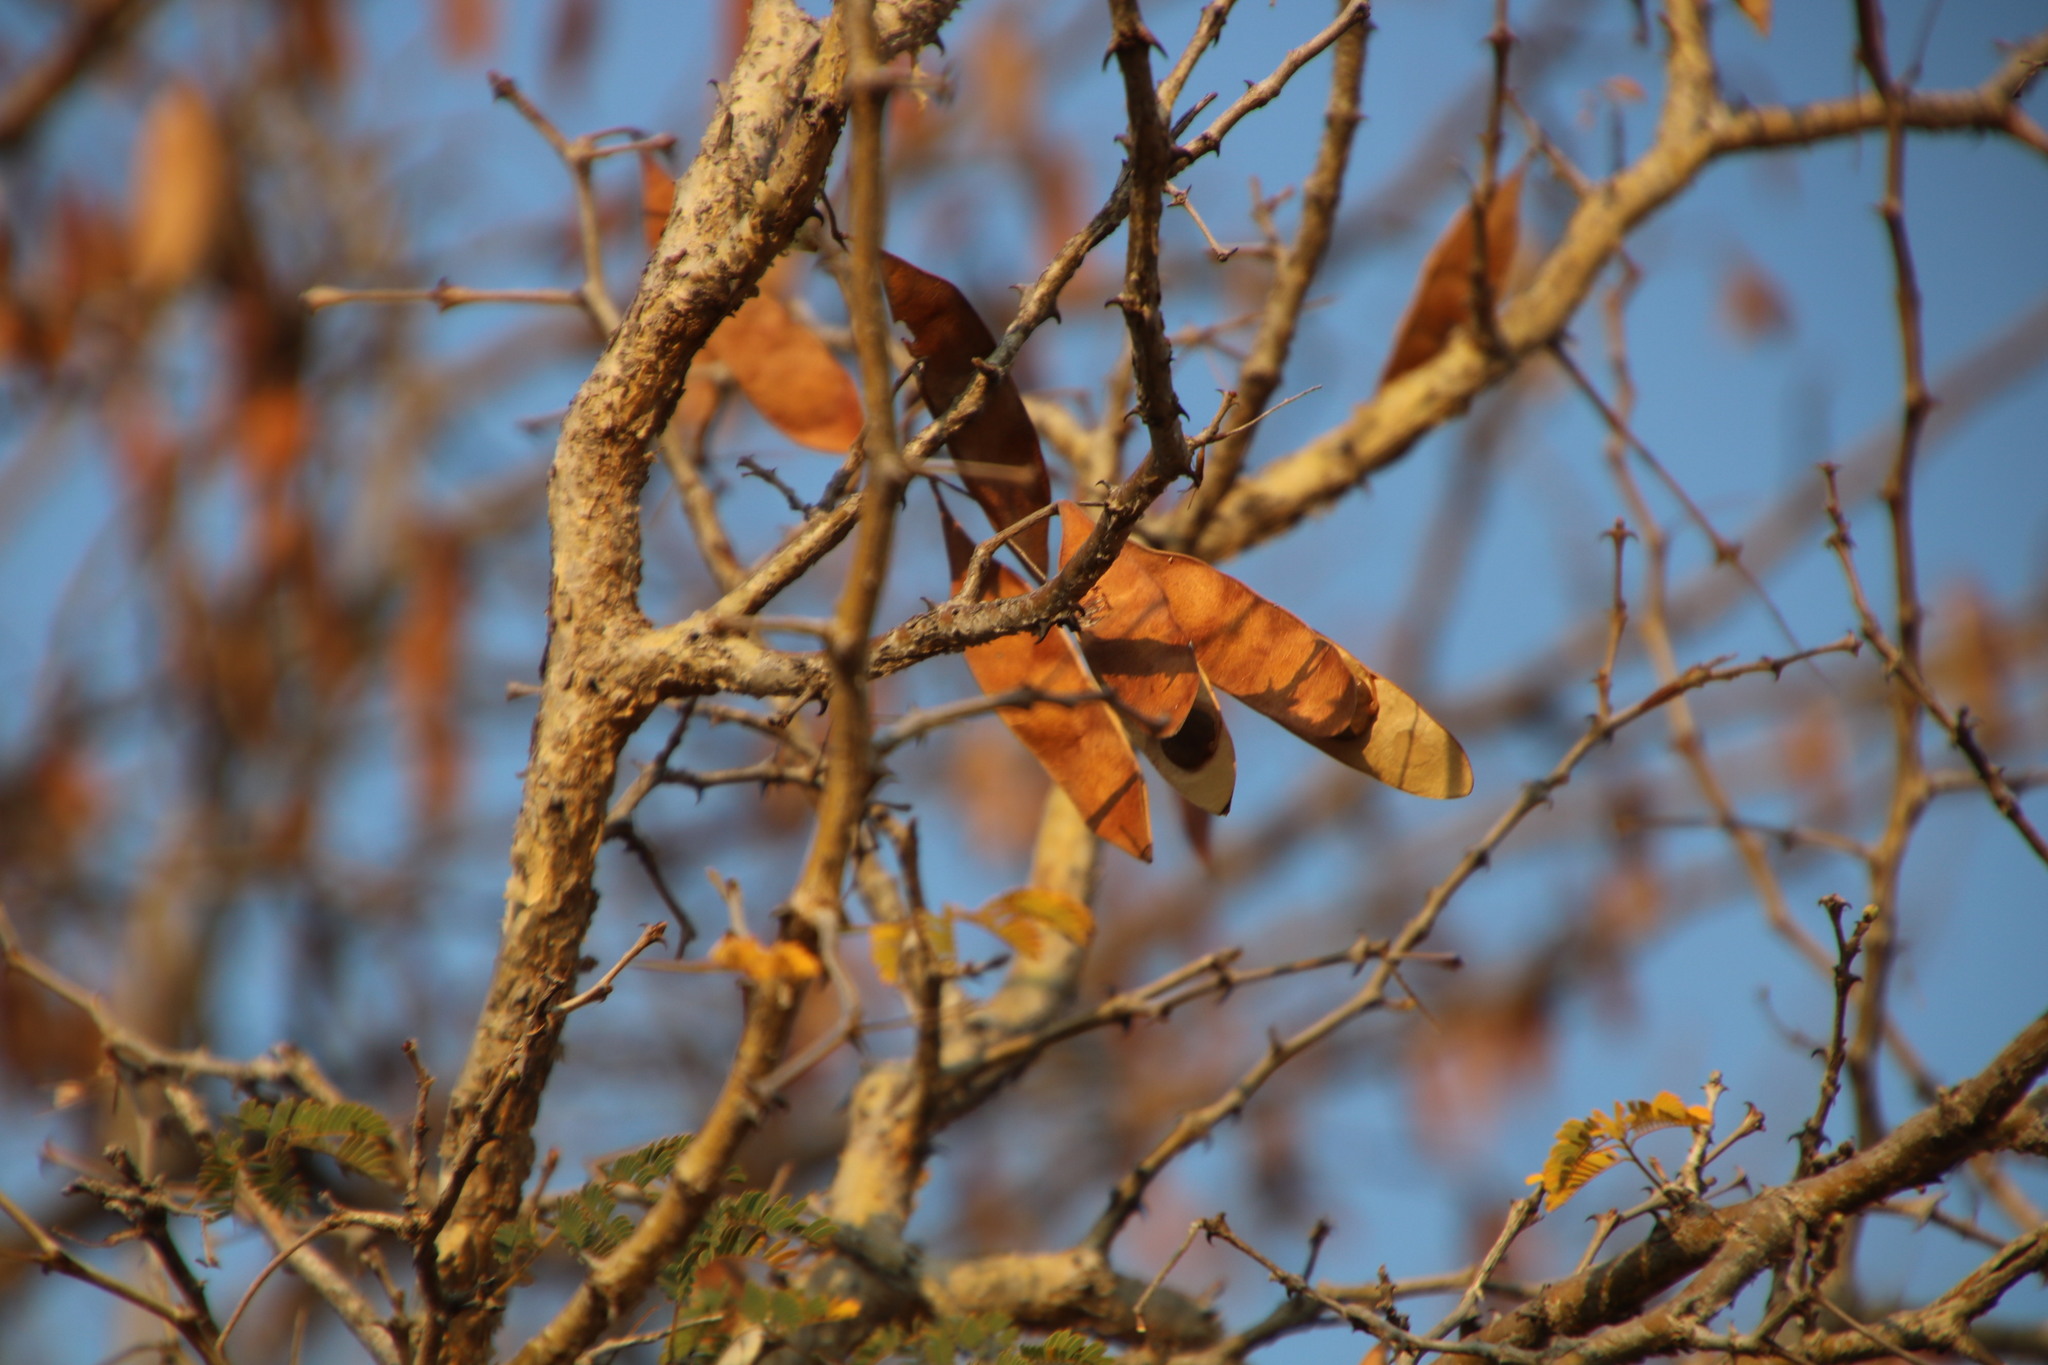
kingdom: Plantae
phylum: Tracheophyta
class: Magnoliopsida
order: Fabales
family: Fabaceae
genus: Senegalia
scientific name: Senegalia erubescens
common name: Bluethorn
